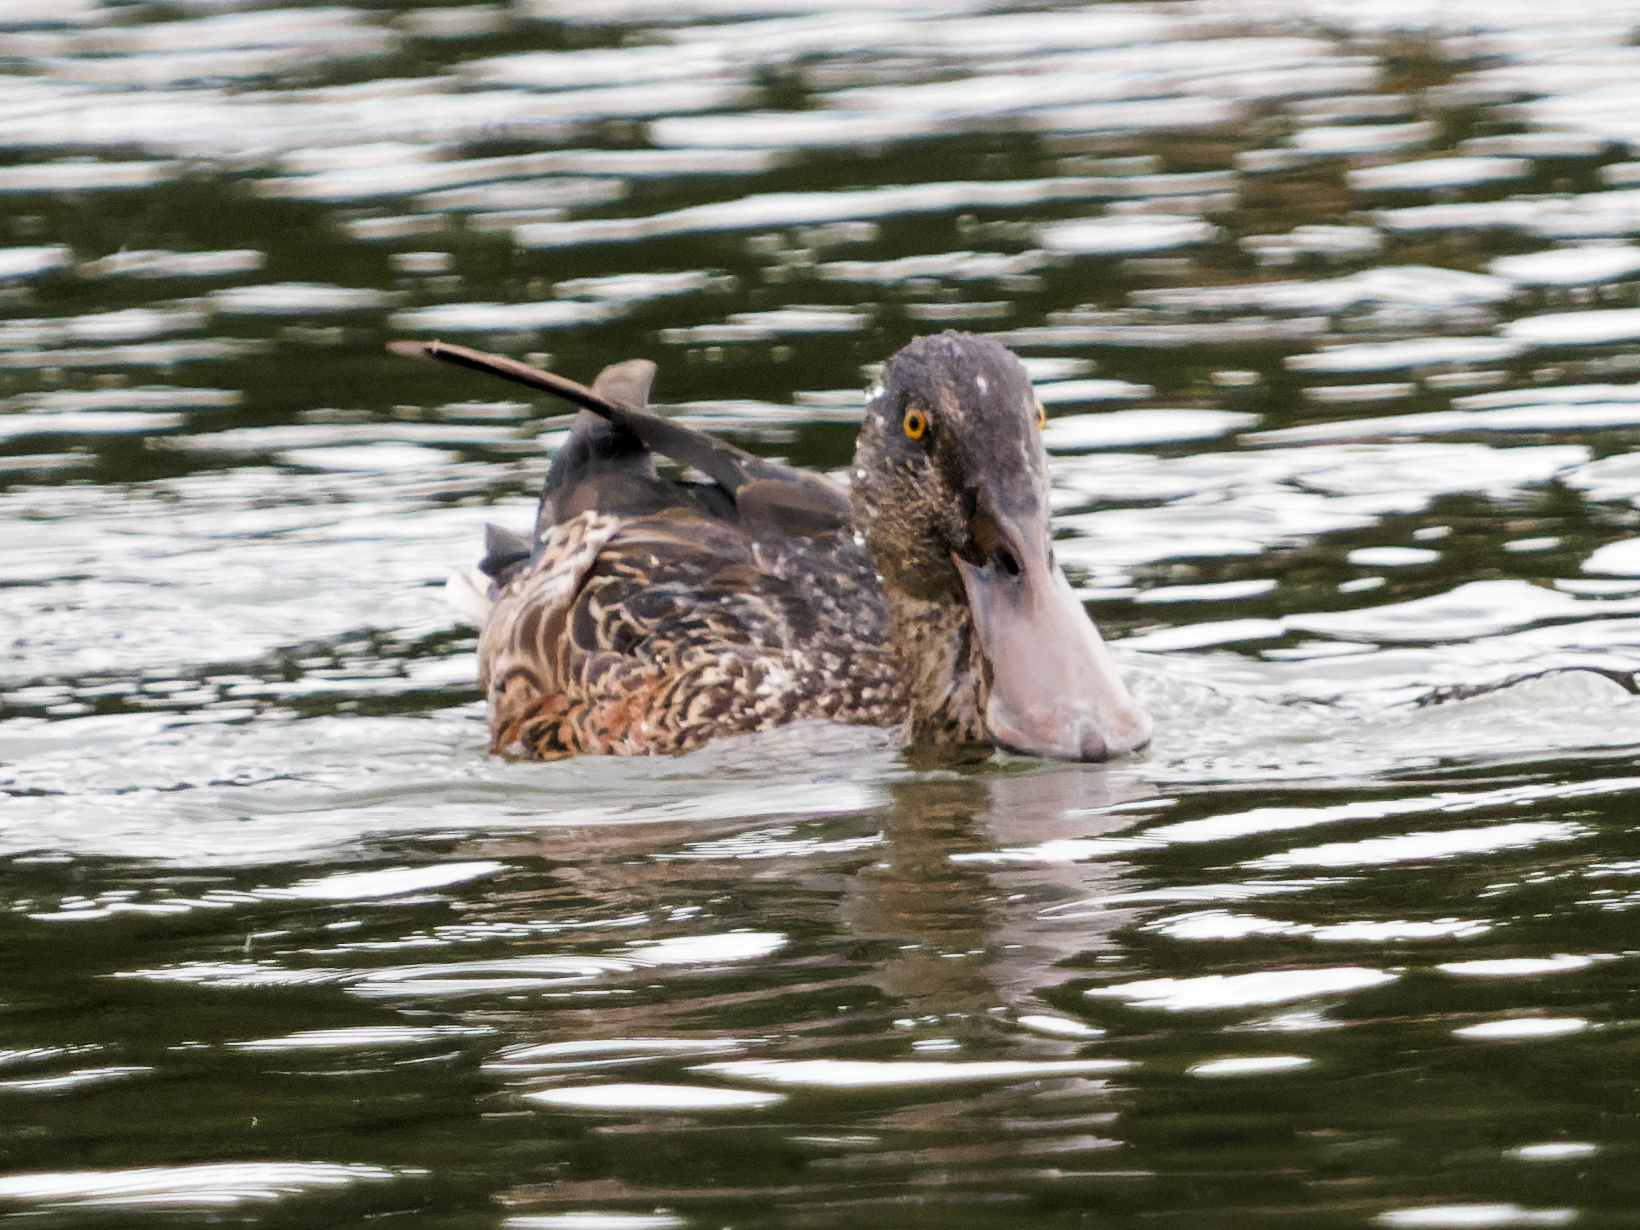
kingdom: Animalia
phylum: Chordata
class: Aves
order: Anseriformes
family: Anatidae
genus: Spatula
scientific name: Spatula clypeata
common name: Northern shoveler
